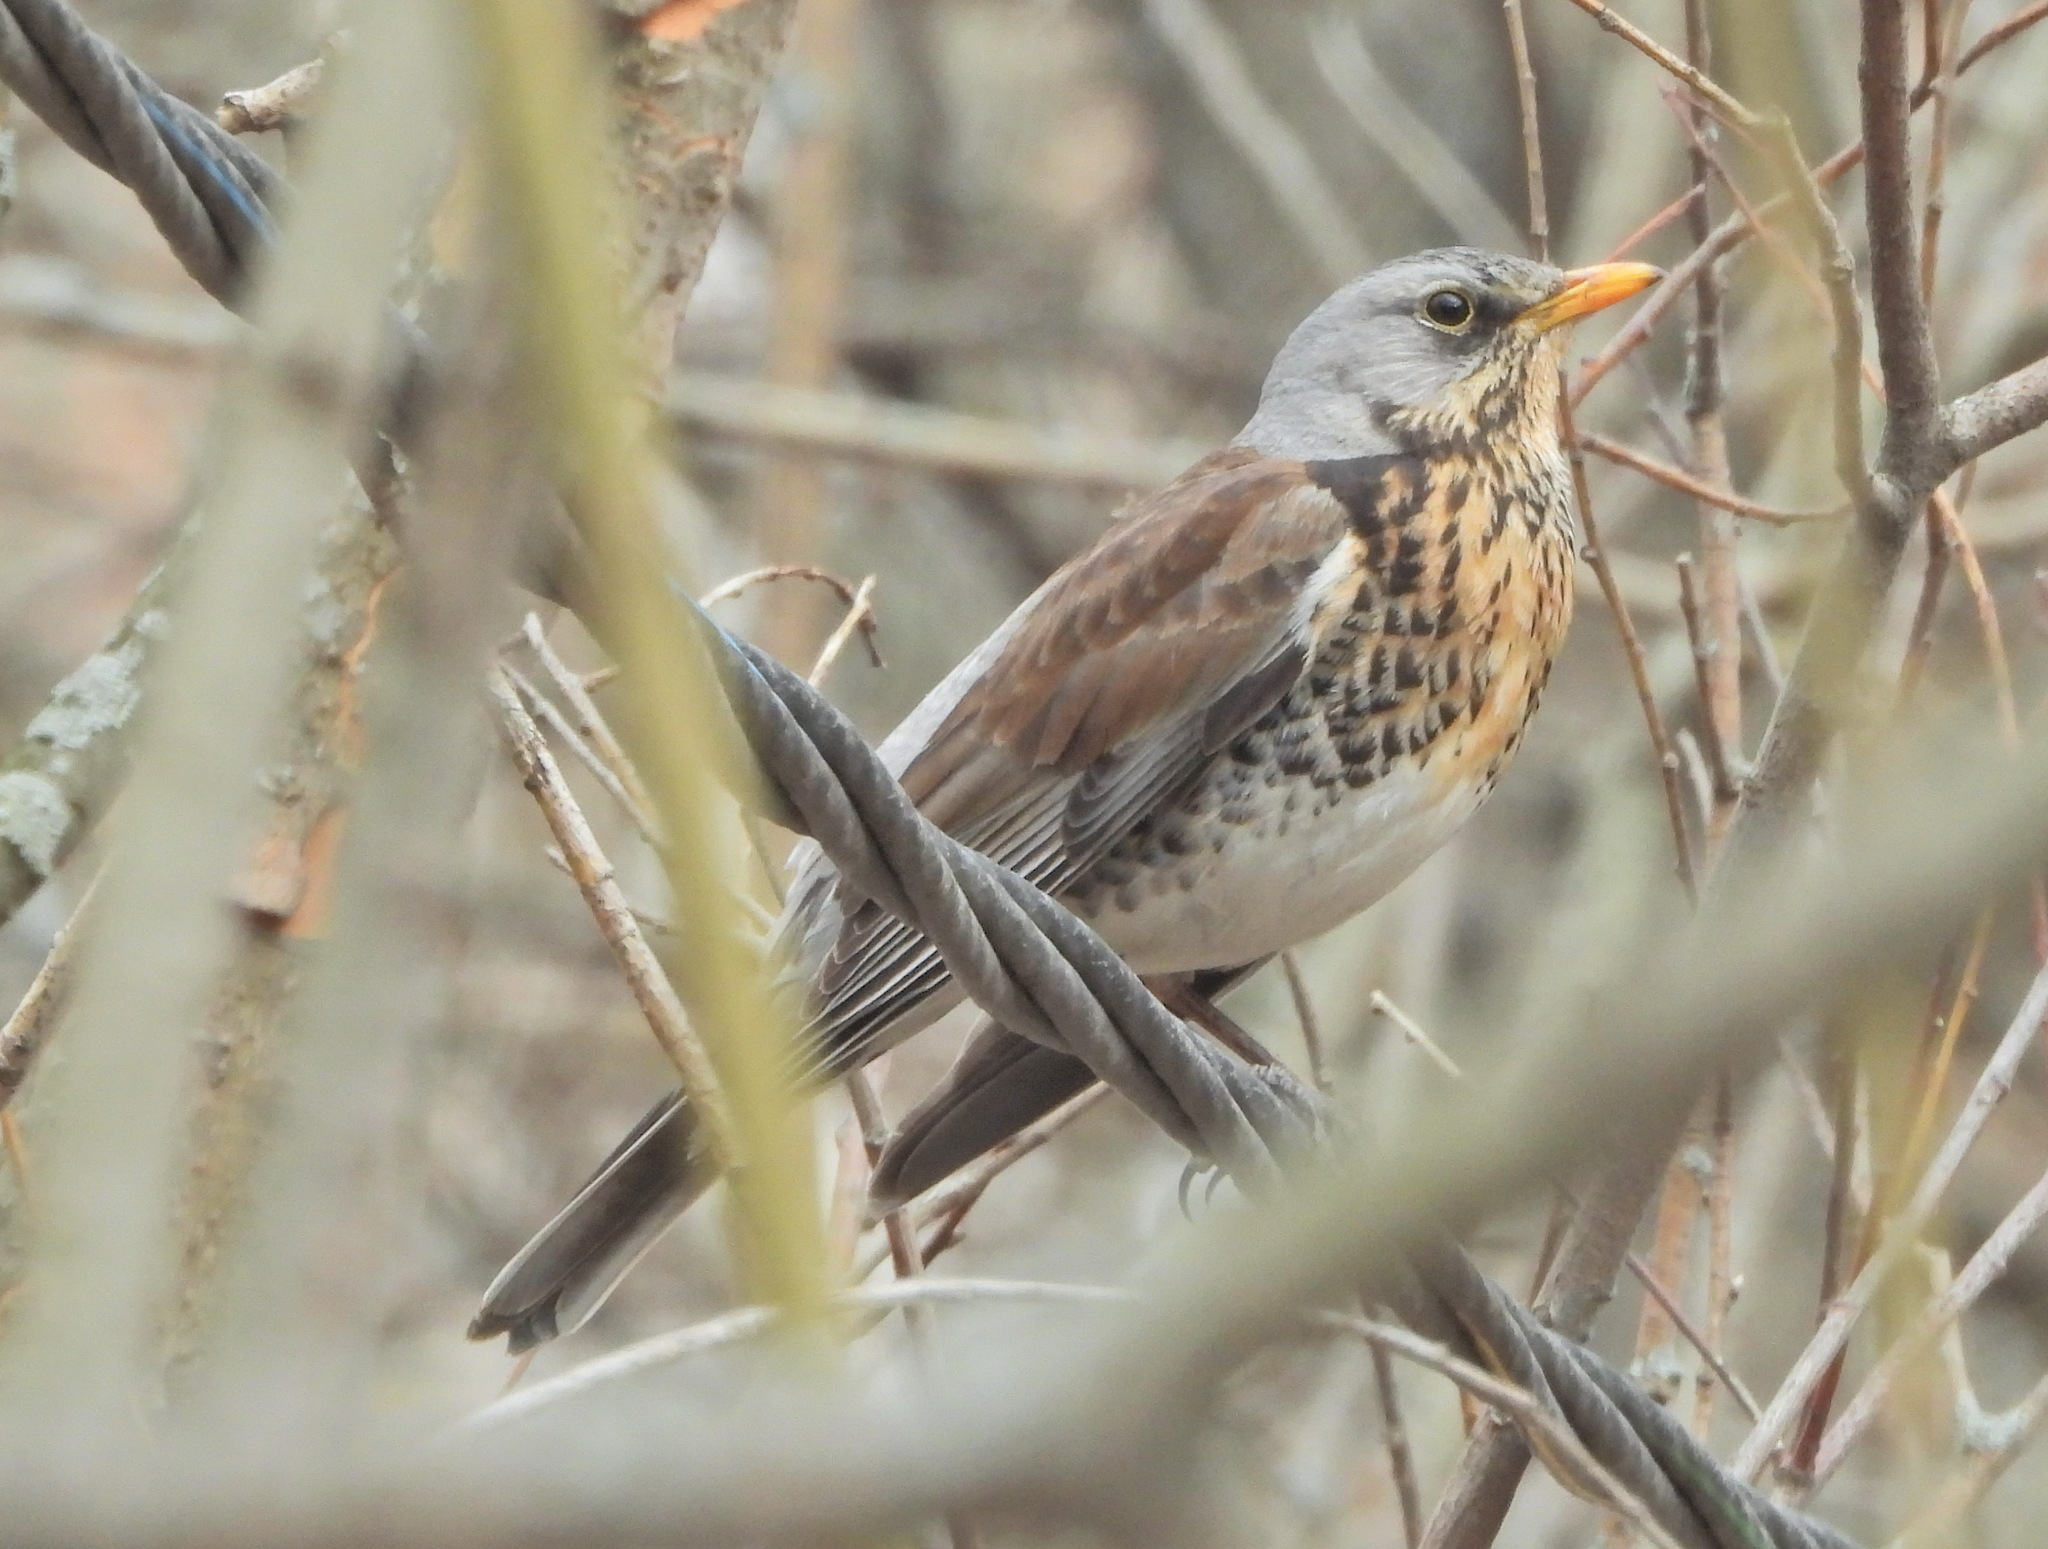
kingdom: Animalia
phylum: Chordata
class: Aves
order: Passeriformes
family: Turdidae
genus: Turdus
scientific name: Turdus pilaris
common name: Fieldfare
